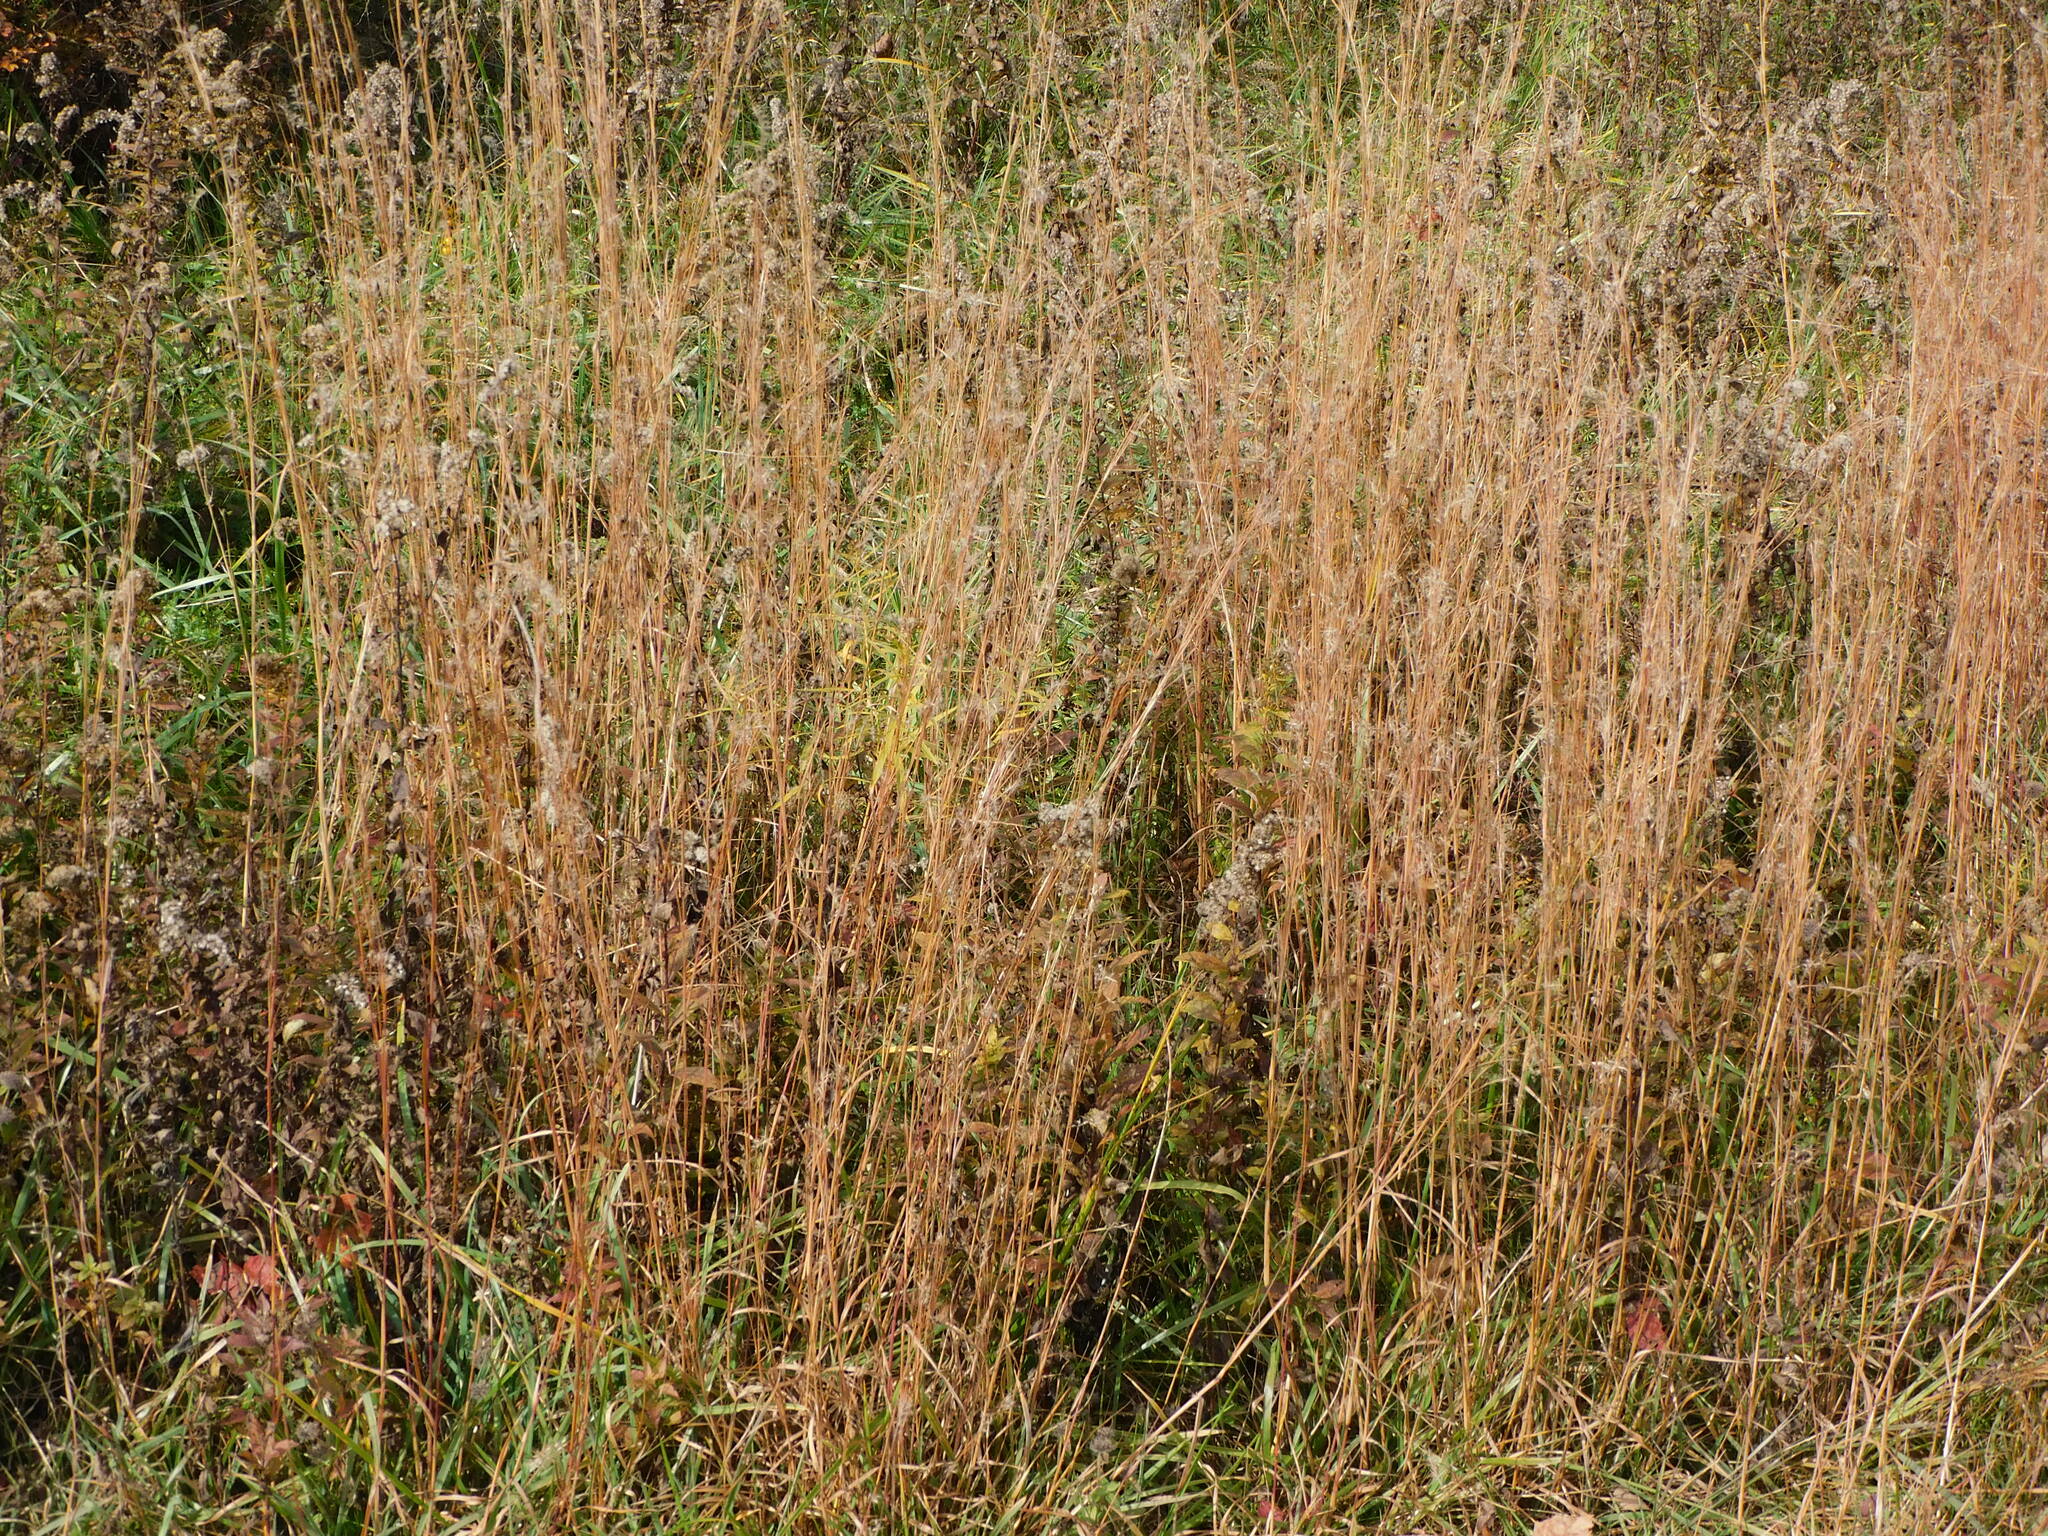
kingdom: Plantae
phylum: Tracheophyta
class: Liliopsida
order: Poales
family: Poaceae
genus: Schizachyrium
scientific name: Schizachyrium scoparium
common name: Little bluestem
